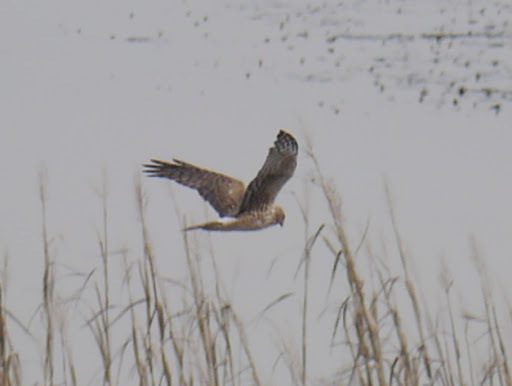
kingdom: Animalia
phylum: Chordata
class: Aves
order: Accipitriformes
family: Accipitridae
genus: Circus
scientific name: Circus cyaneus
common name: Hen harrier
